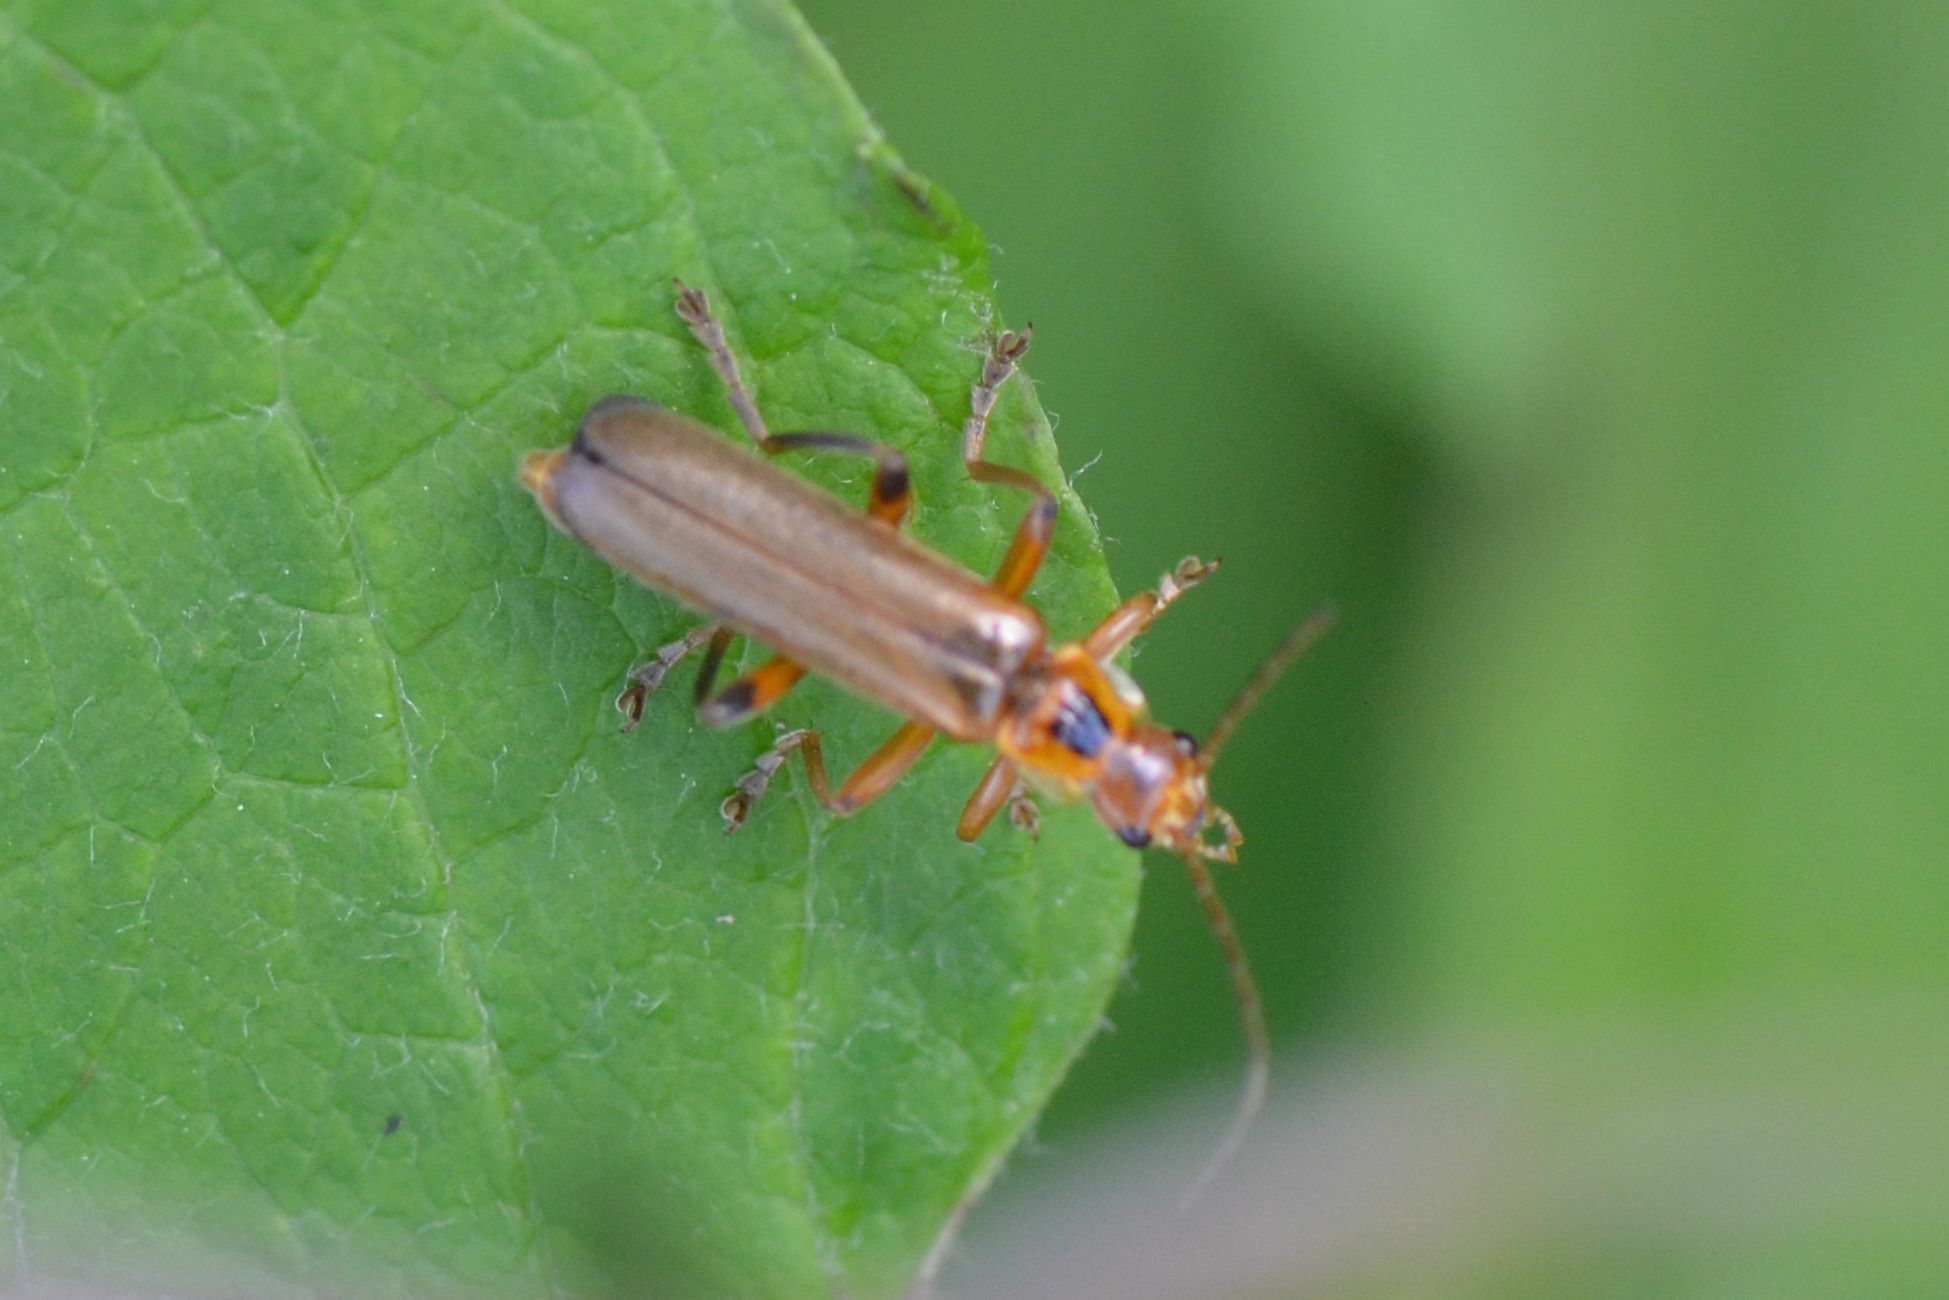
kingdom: Animalia
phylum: Arthropoda
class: Insecta
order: Coleoptera
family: Cantharidae
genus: Metacantharis
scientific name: Metacantharis discoidea
